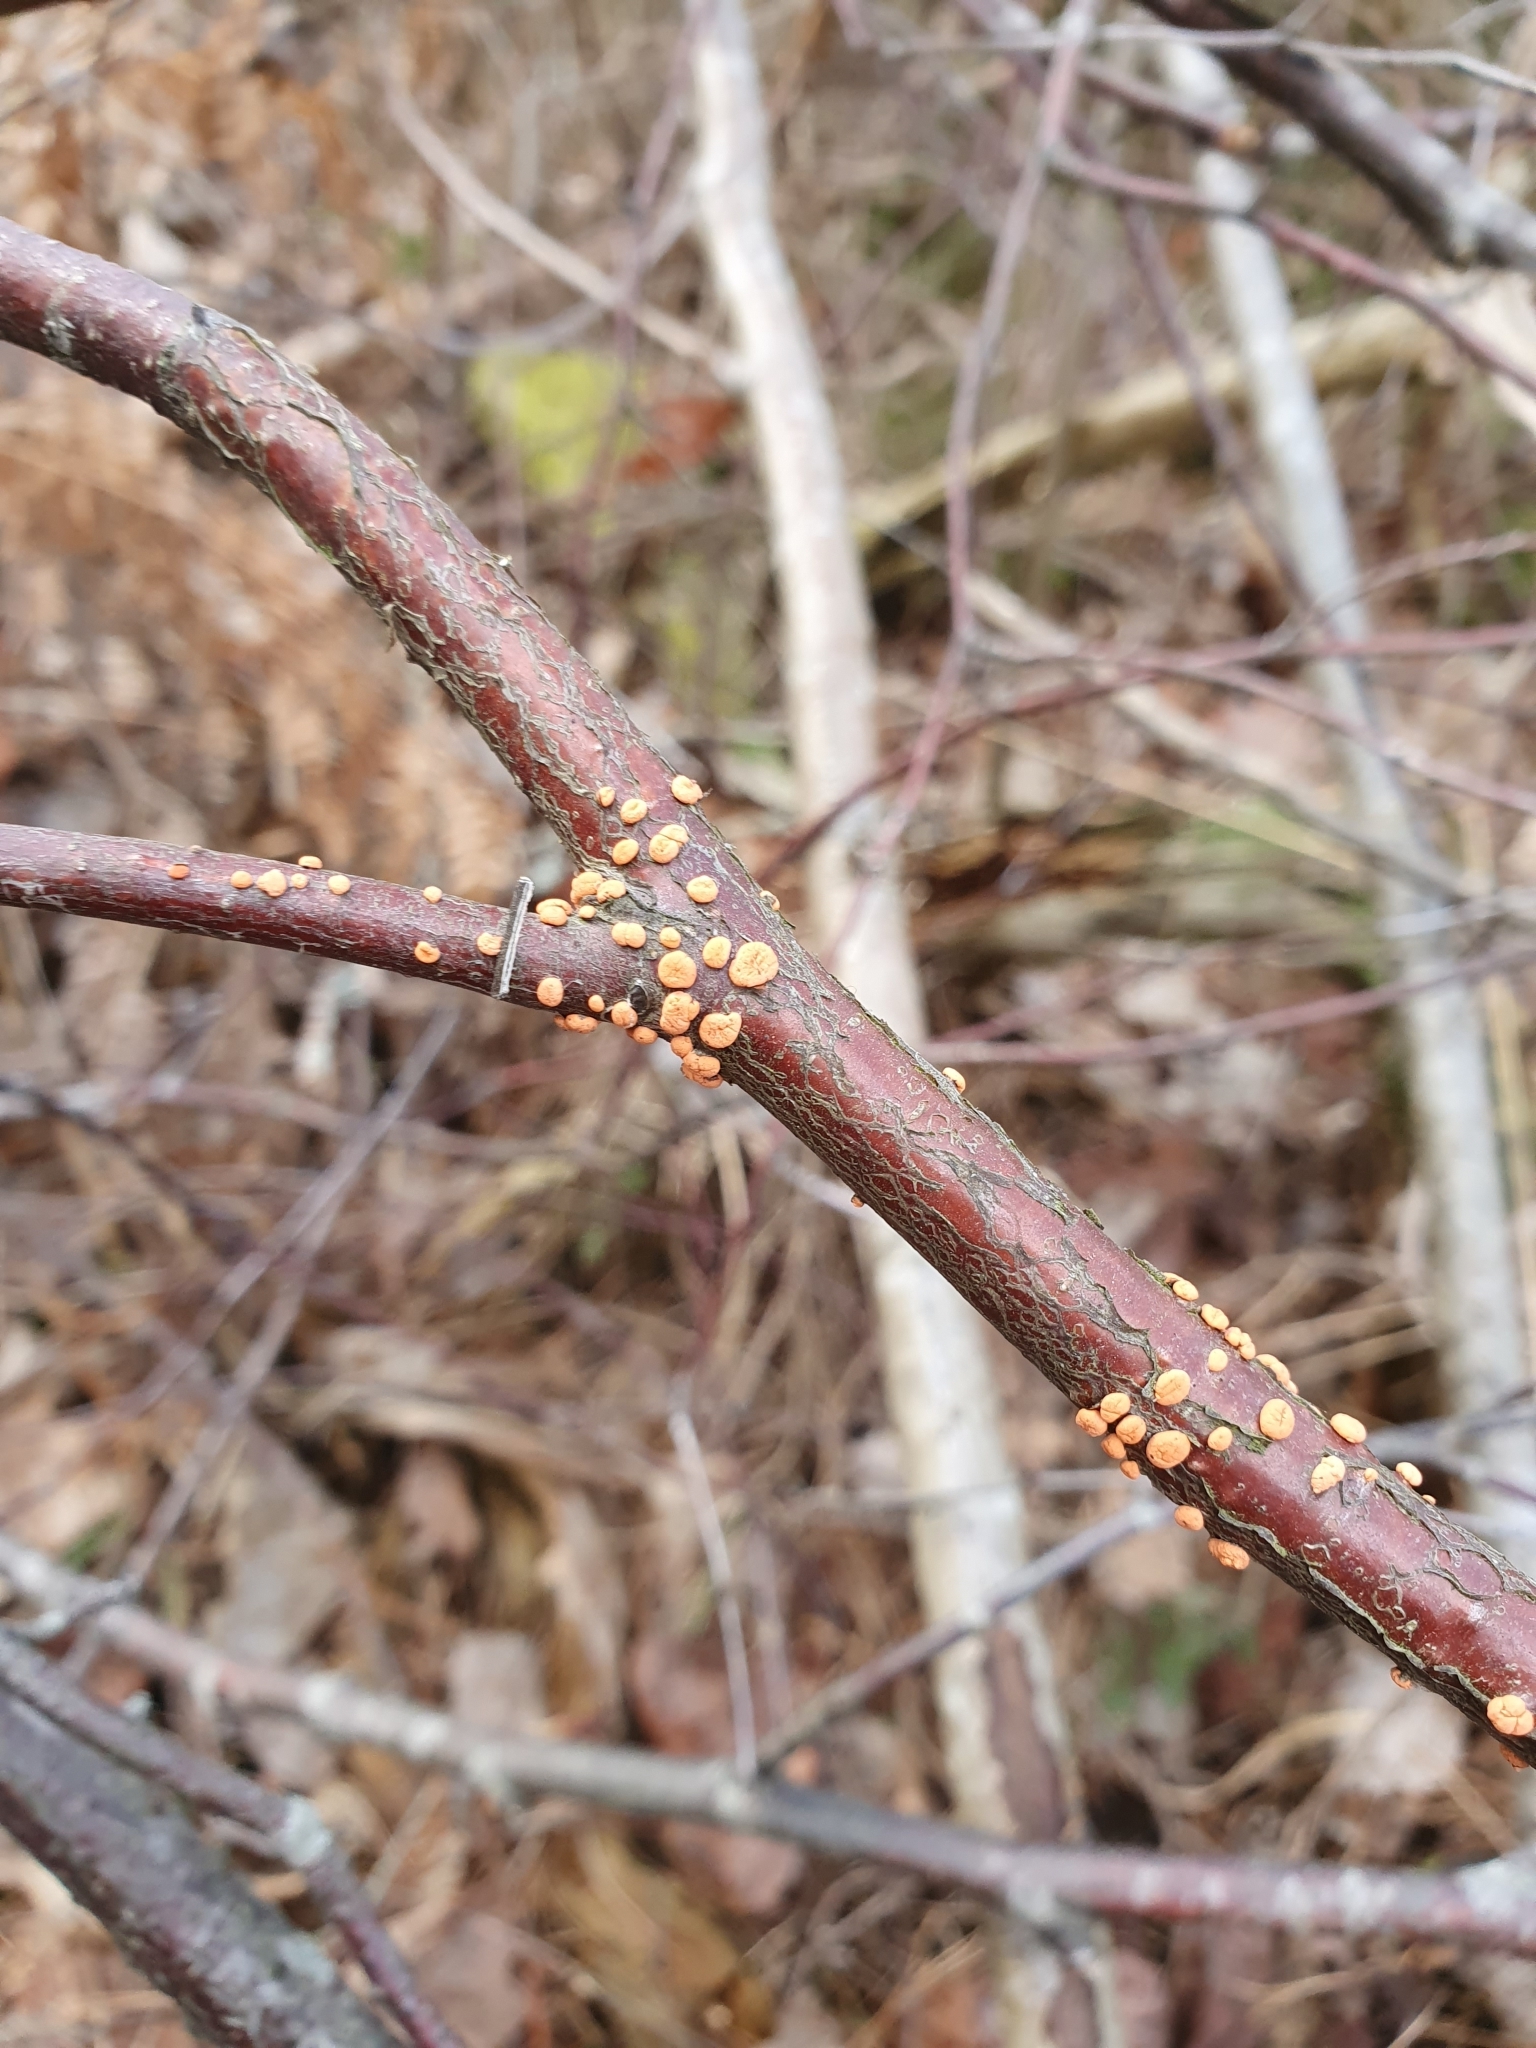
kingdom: Fungi
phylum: Ascomycota
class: Sordariomycetes
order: Hypocreales
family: Nectriaceae
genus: Nectria
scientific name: Nectria cinnabarina
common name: Coral spot
